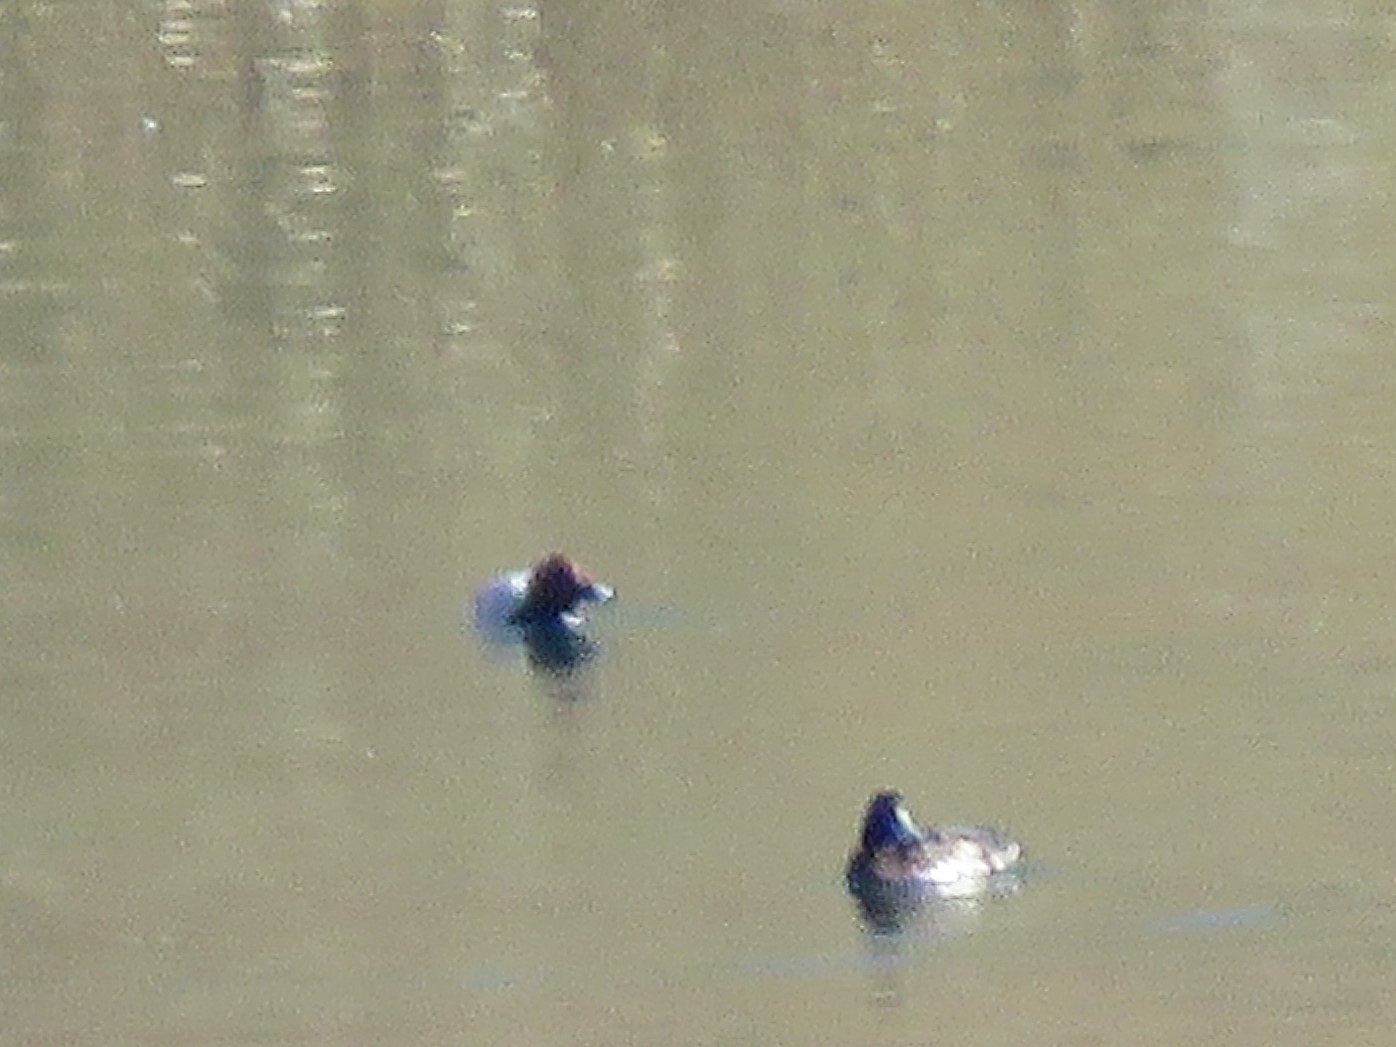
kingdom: Animalia
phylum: Chordata
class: Aves
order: Anseriformes
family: Anatidae
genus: Aythya
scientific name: Aythya ferina
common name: Common pochard
